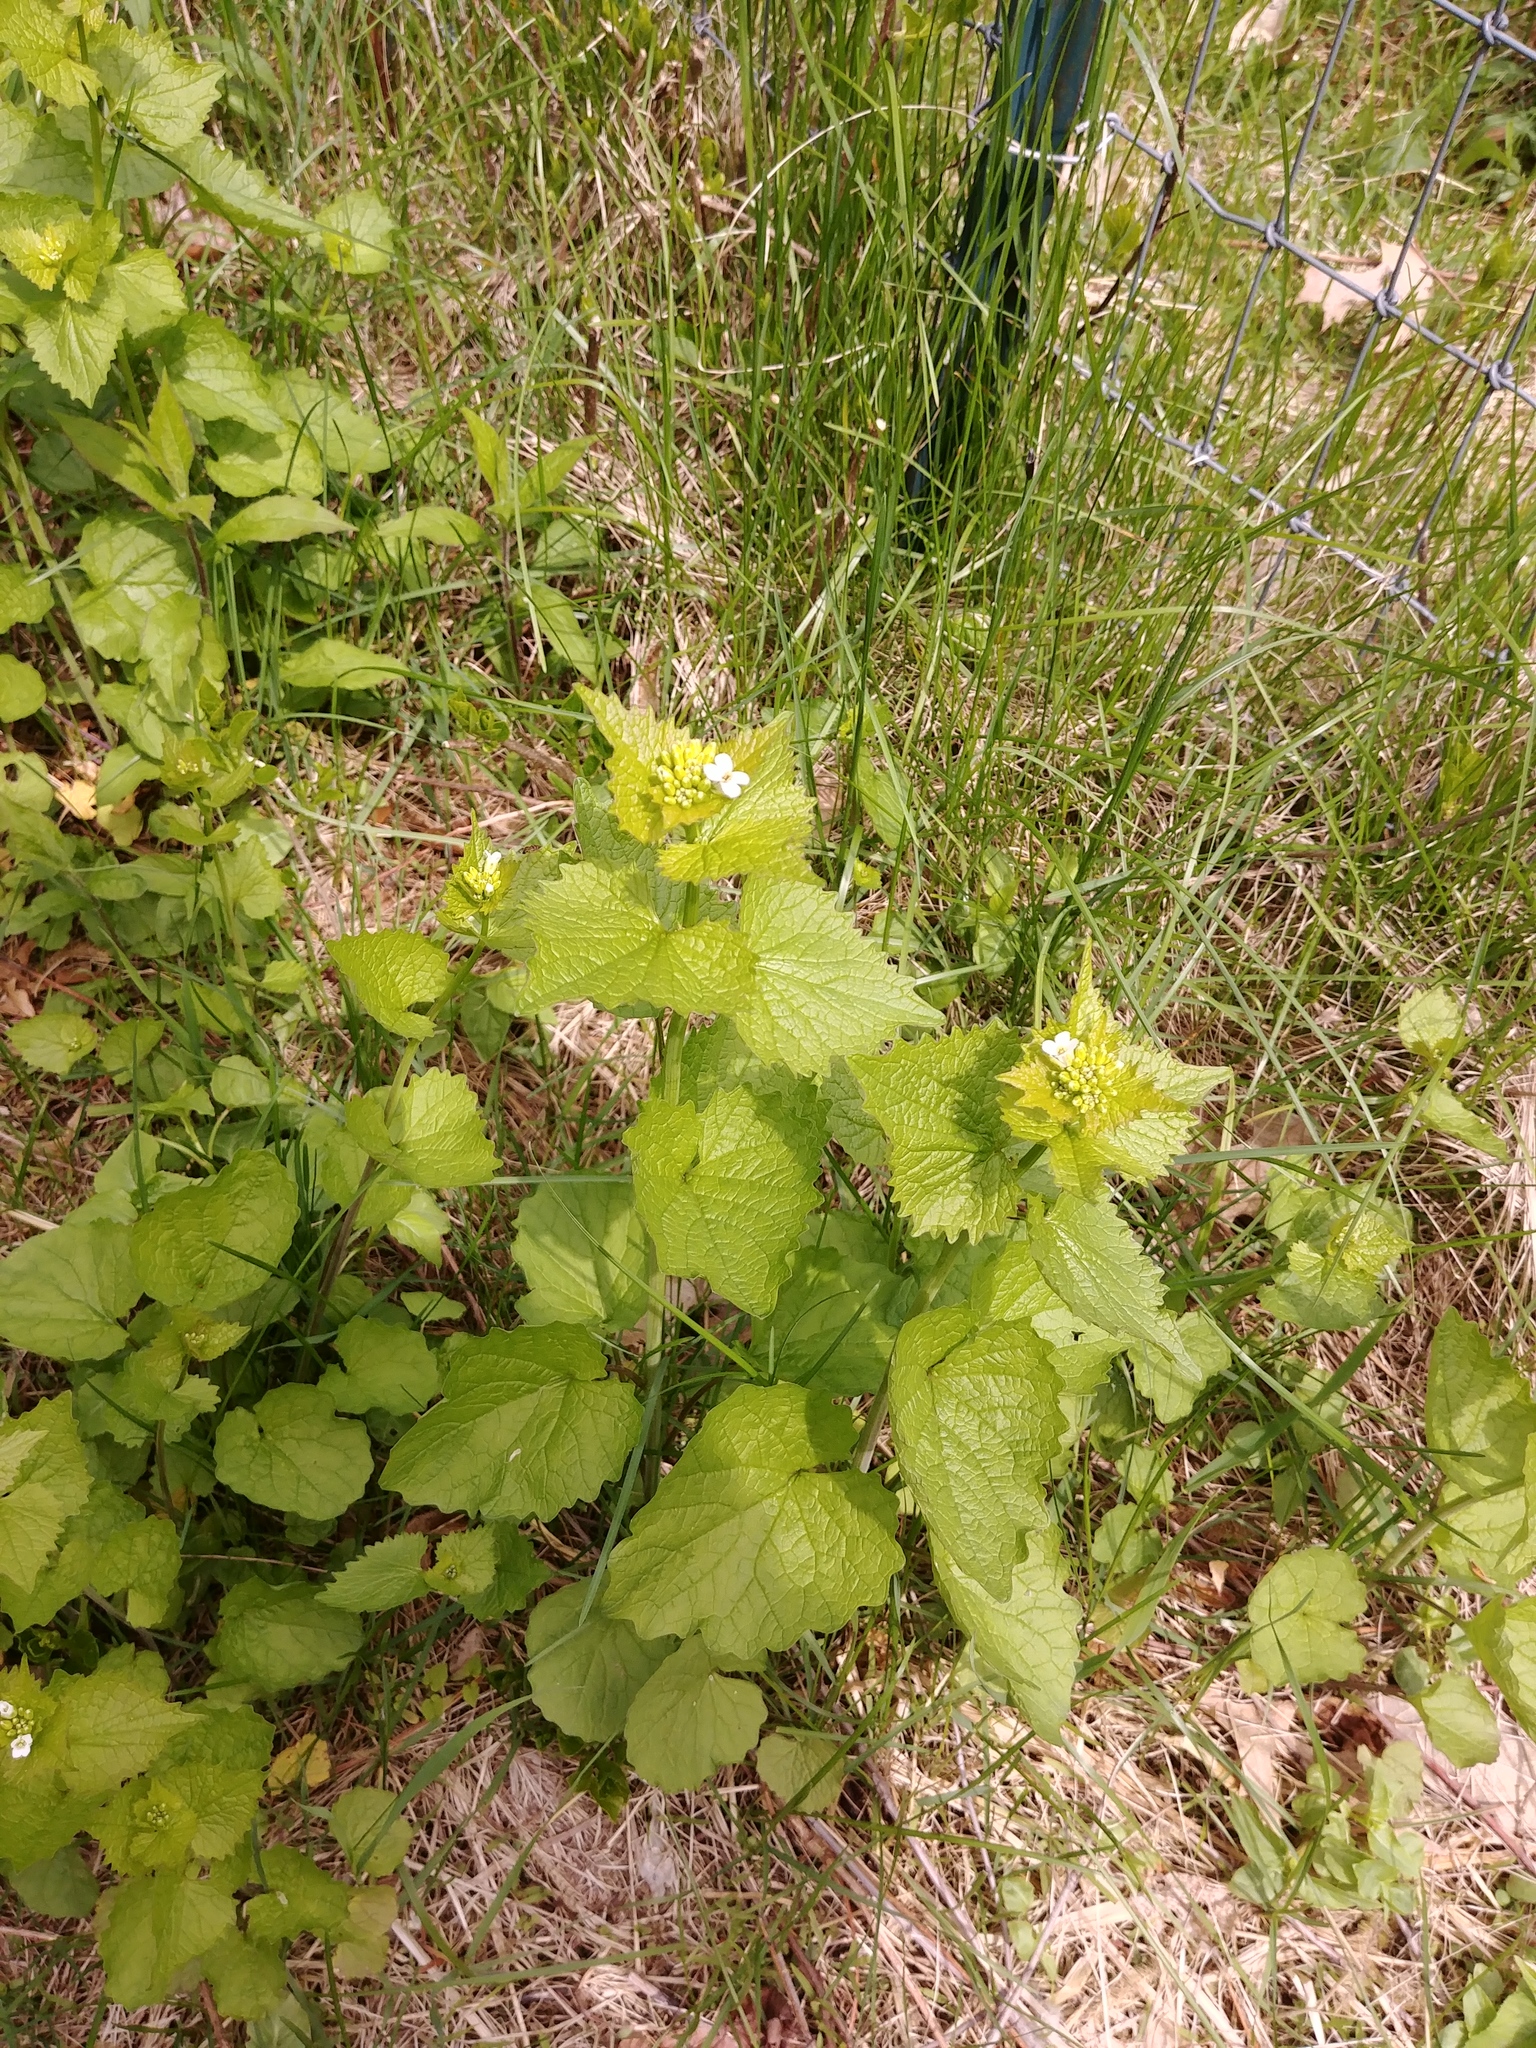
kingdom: Plantae
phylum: Tracheophyta
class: Magnoliopsida
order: Brassicales
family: Brassicaceae
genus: Alliaria
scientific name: Alliaria petiolata
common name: Garlic mustard
